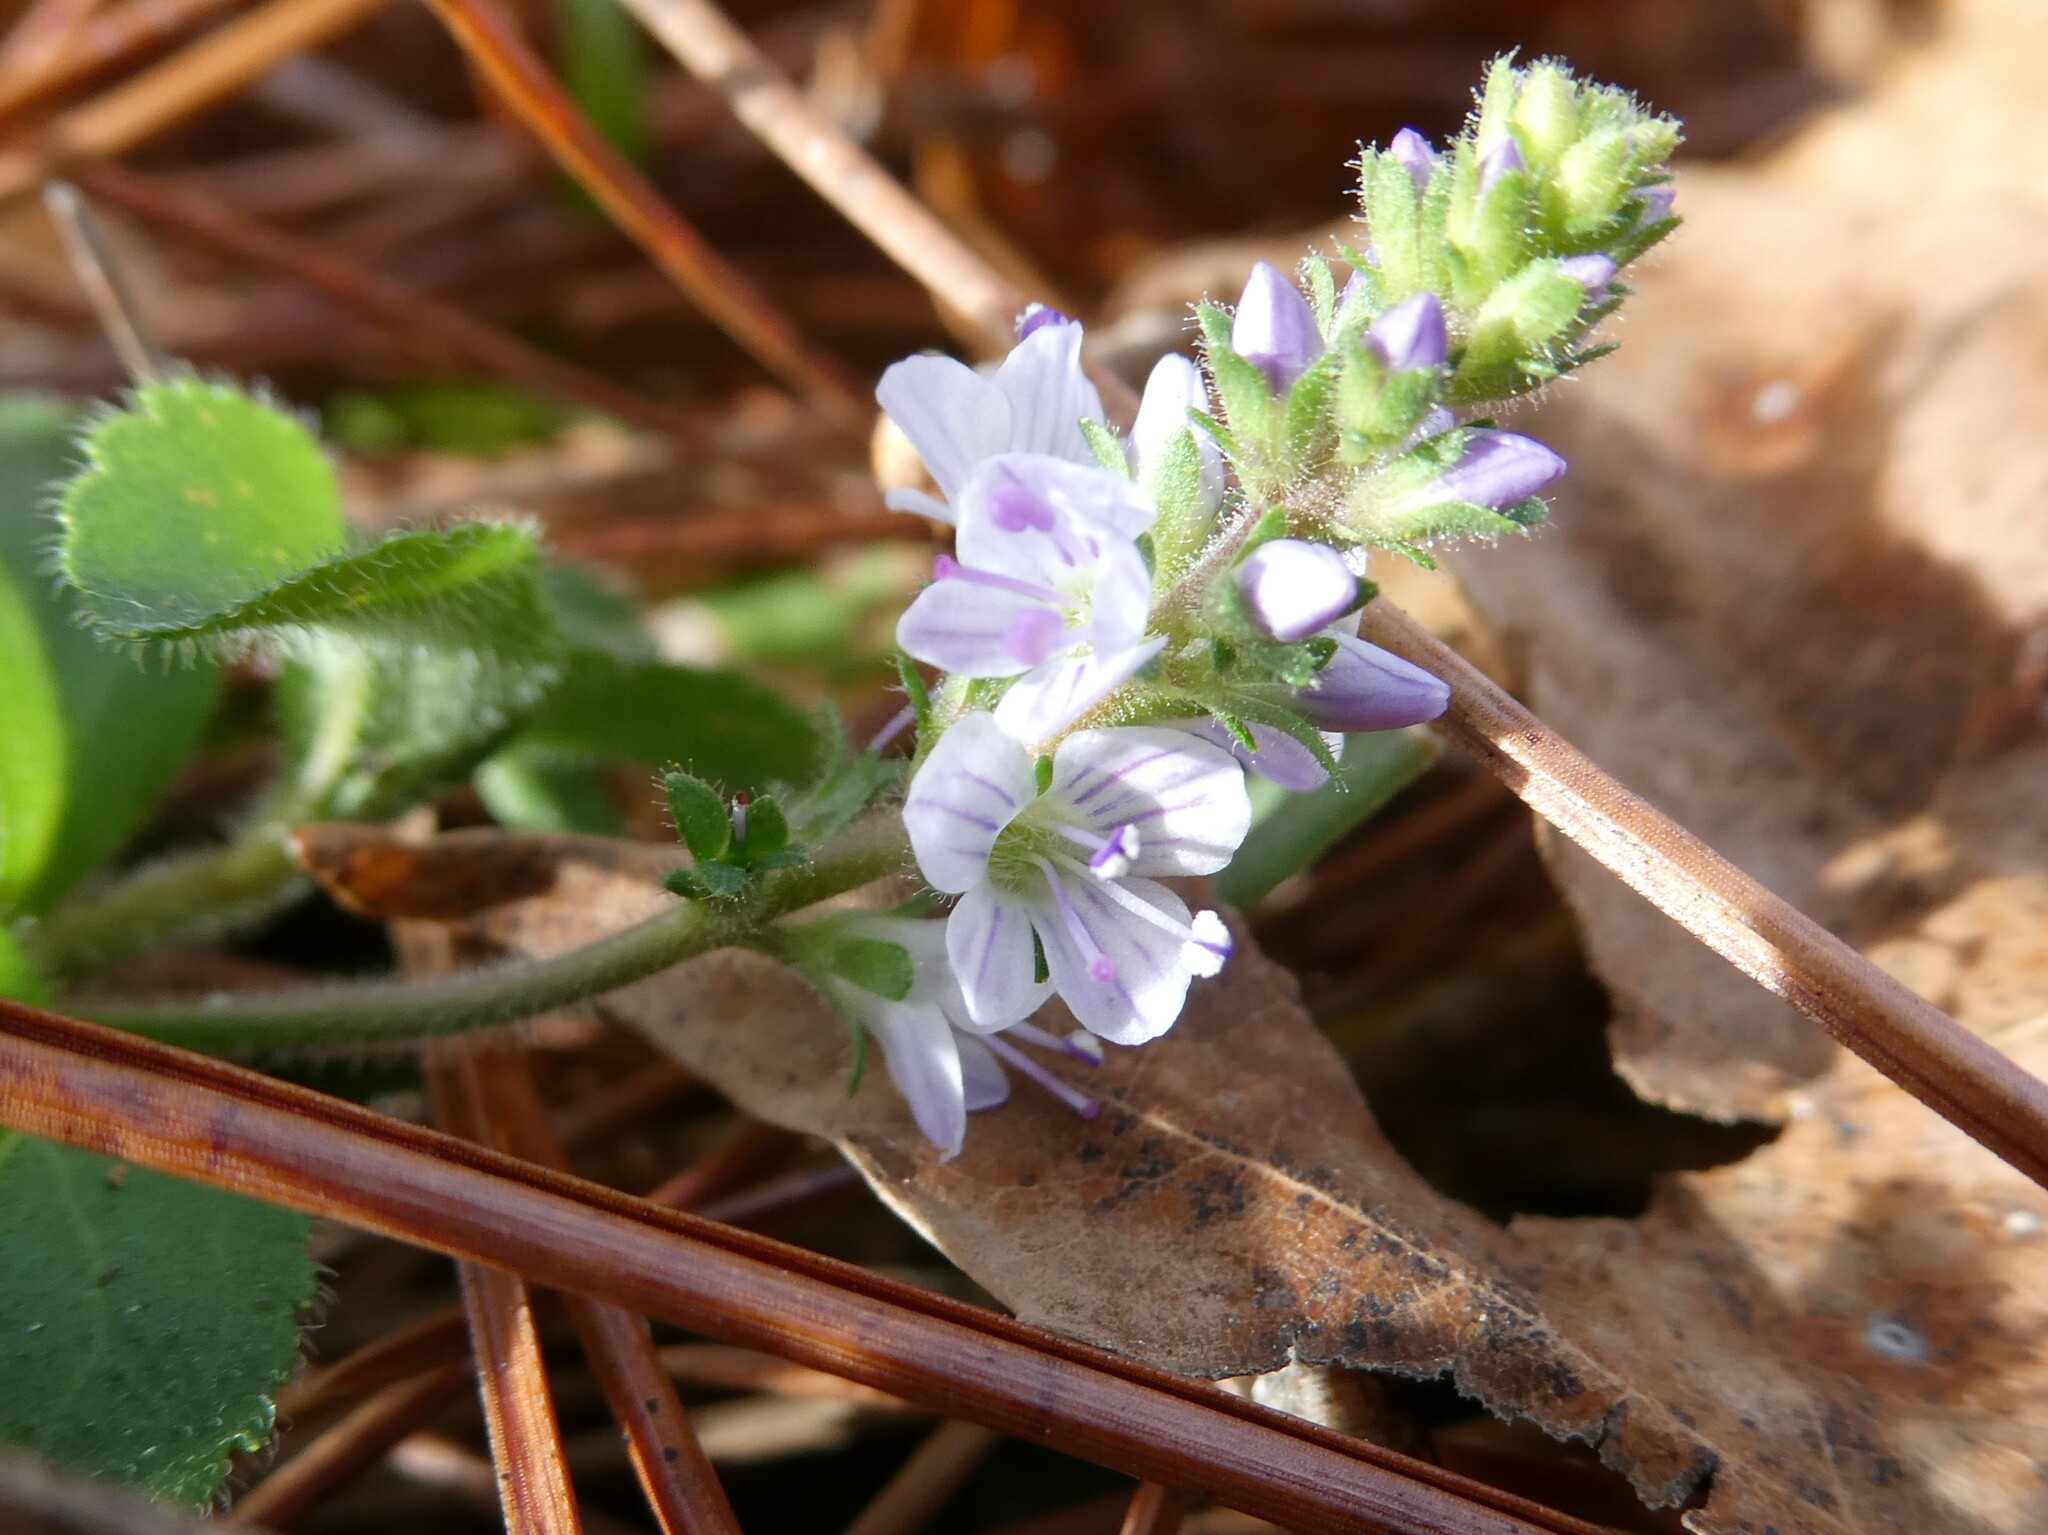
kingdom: Plantae
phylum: Tracheophyta
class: Magnoliopsida
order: Lamiales
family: Plantaginaceae
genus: Veronica
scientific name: Veronica officinalis
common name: Common speedwell
